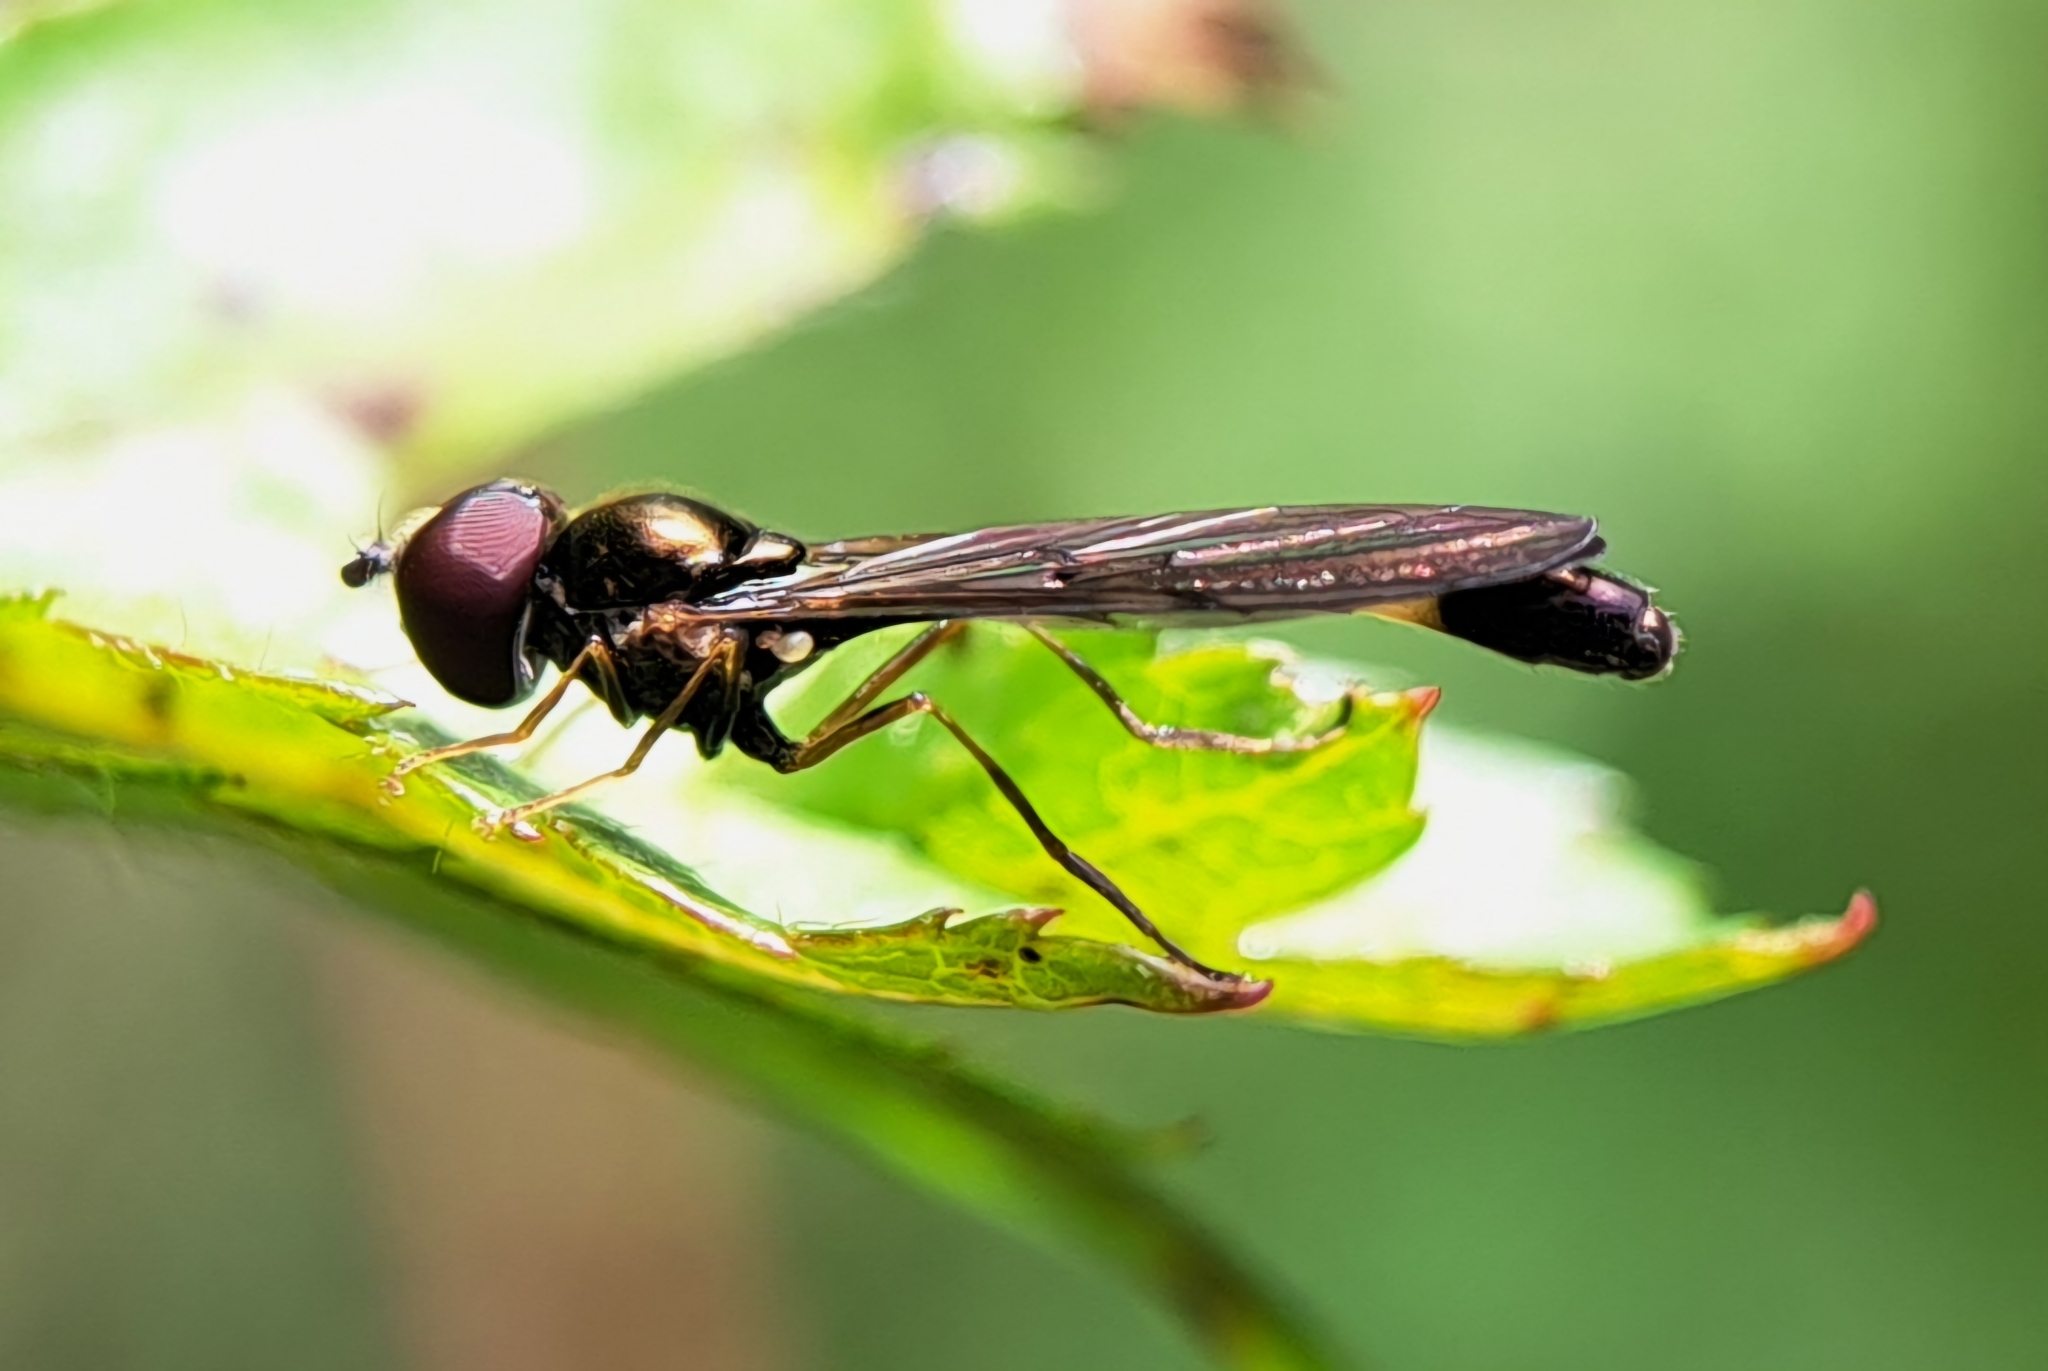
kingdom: Animalia
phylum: Arthropoda
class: Insecta
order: Diptera
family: Syrphidae
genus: Baccha
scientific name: Baccha elongata
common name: Common dainty
